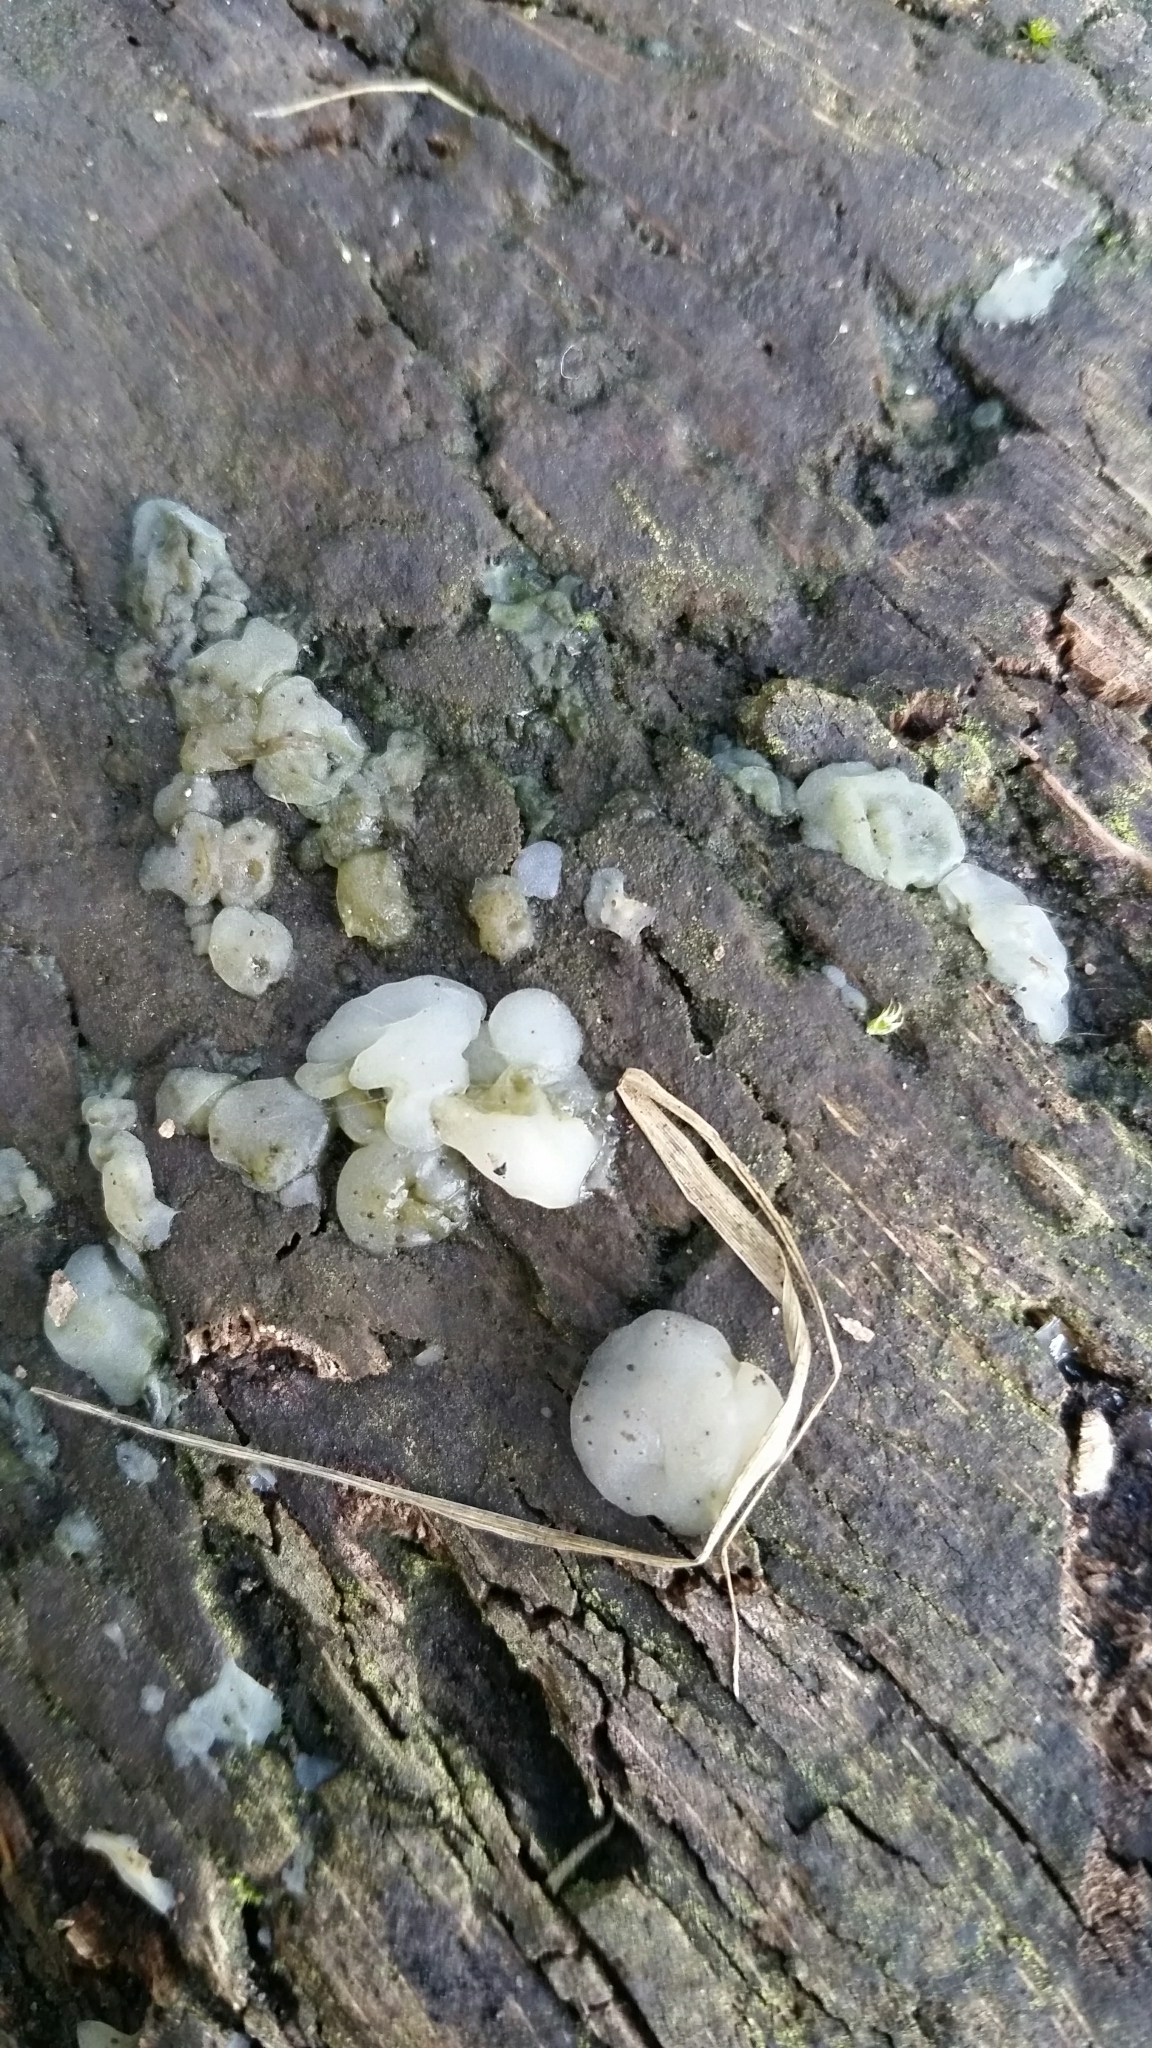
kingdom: Fungi
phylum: Basidiomycota
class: Agaricomycetes
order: Auriculariales
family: Hyaloriaceae
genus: Myxarium
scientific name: Myxarium nucleatum
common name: Crystal brain fungus
